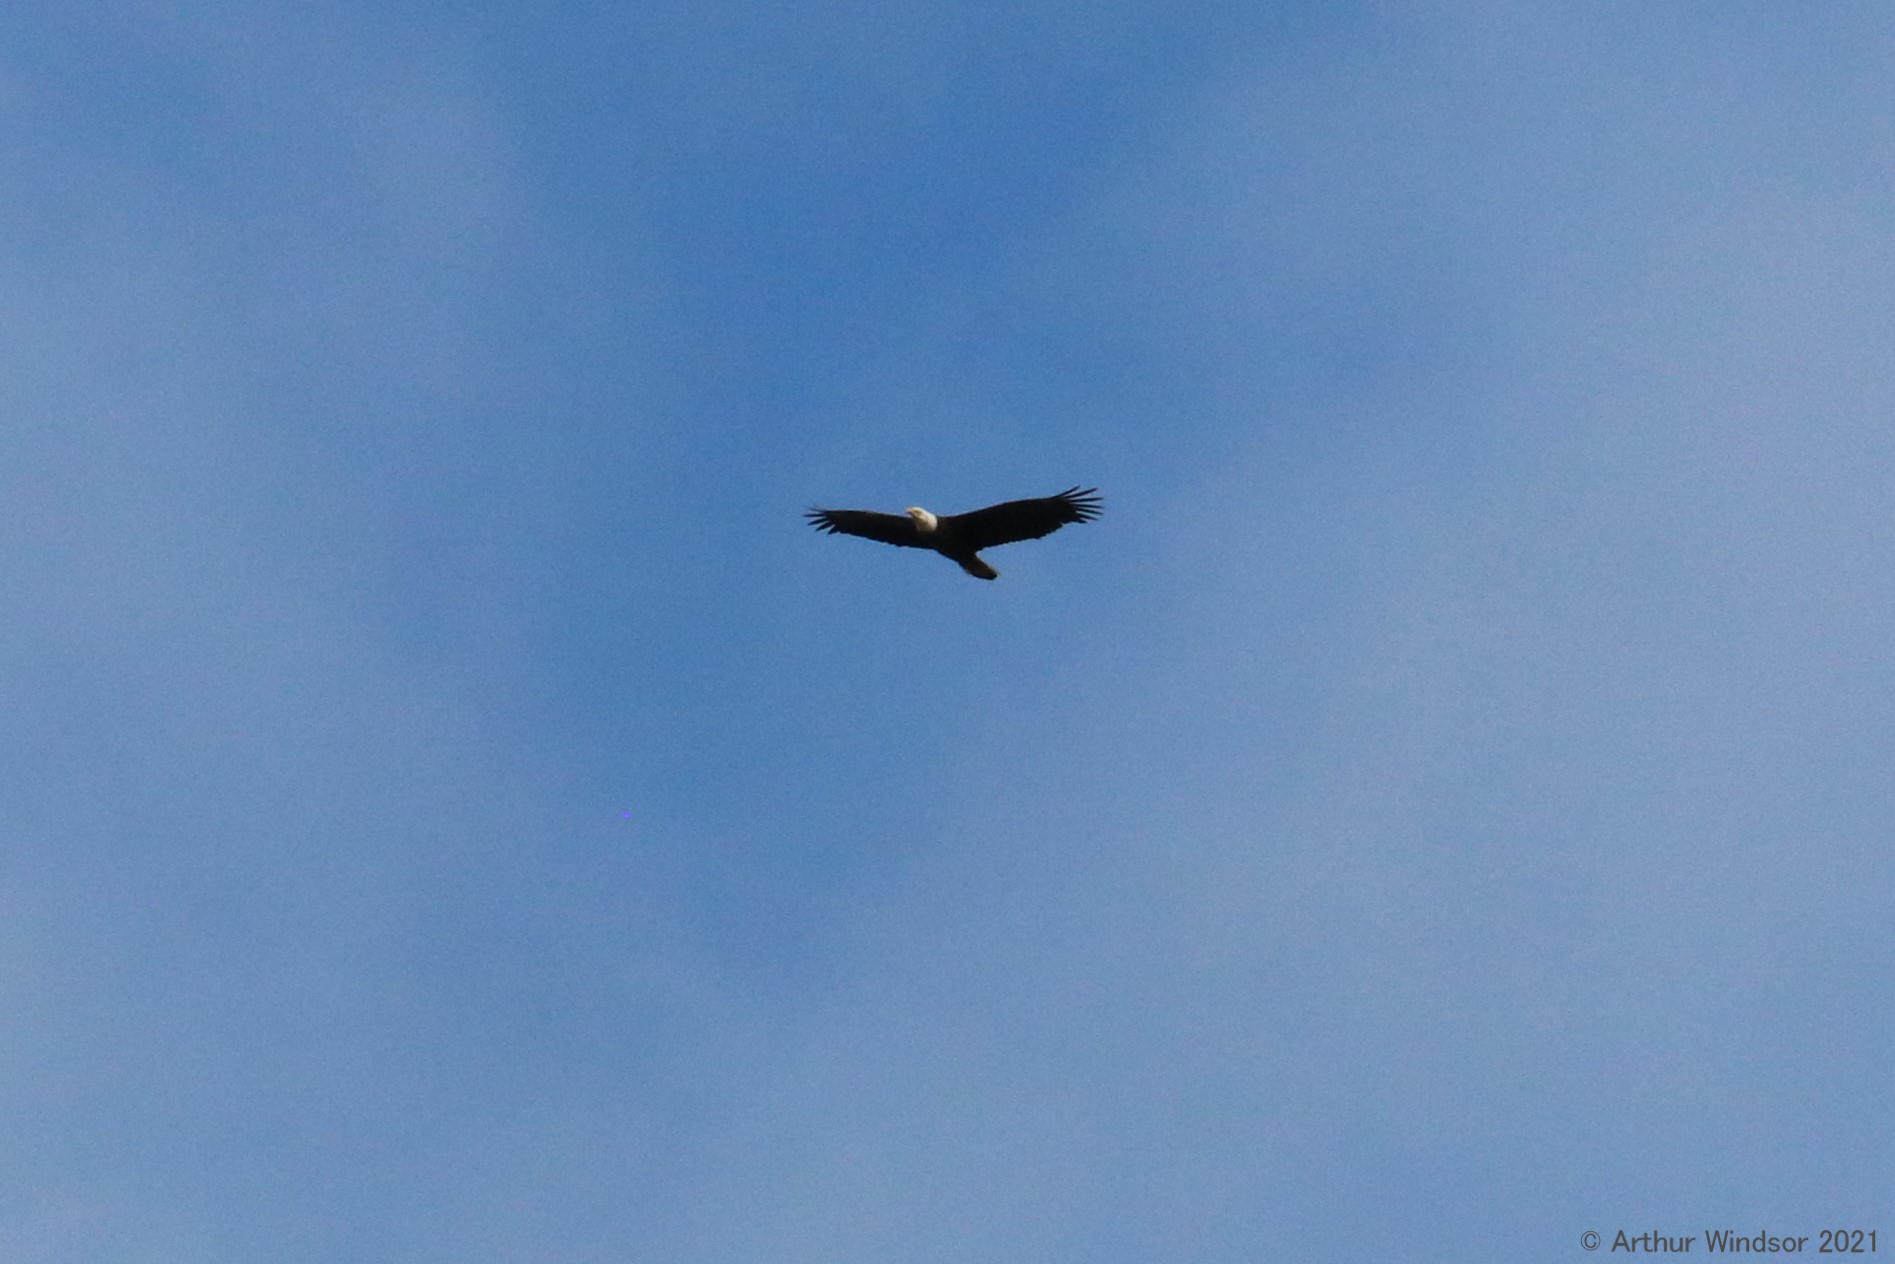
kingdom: Animalia
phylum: Chordata
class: Aves
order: Accipitriformes
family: Accipitridae
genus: Haliaeetus
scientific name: Haliaeetus leucocephalus
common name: Bald eagle
